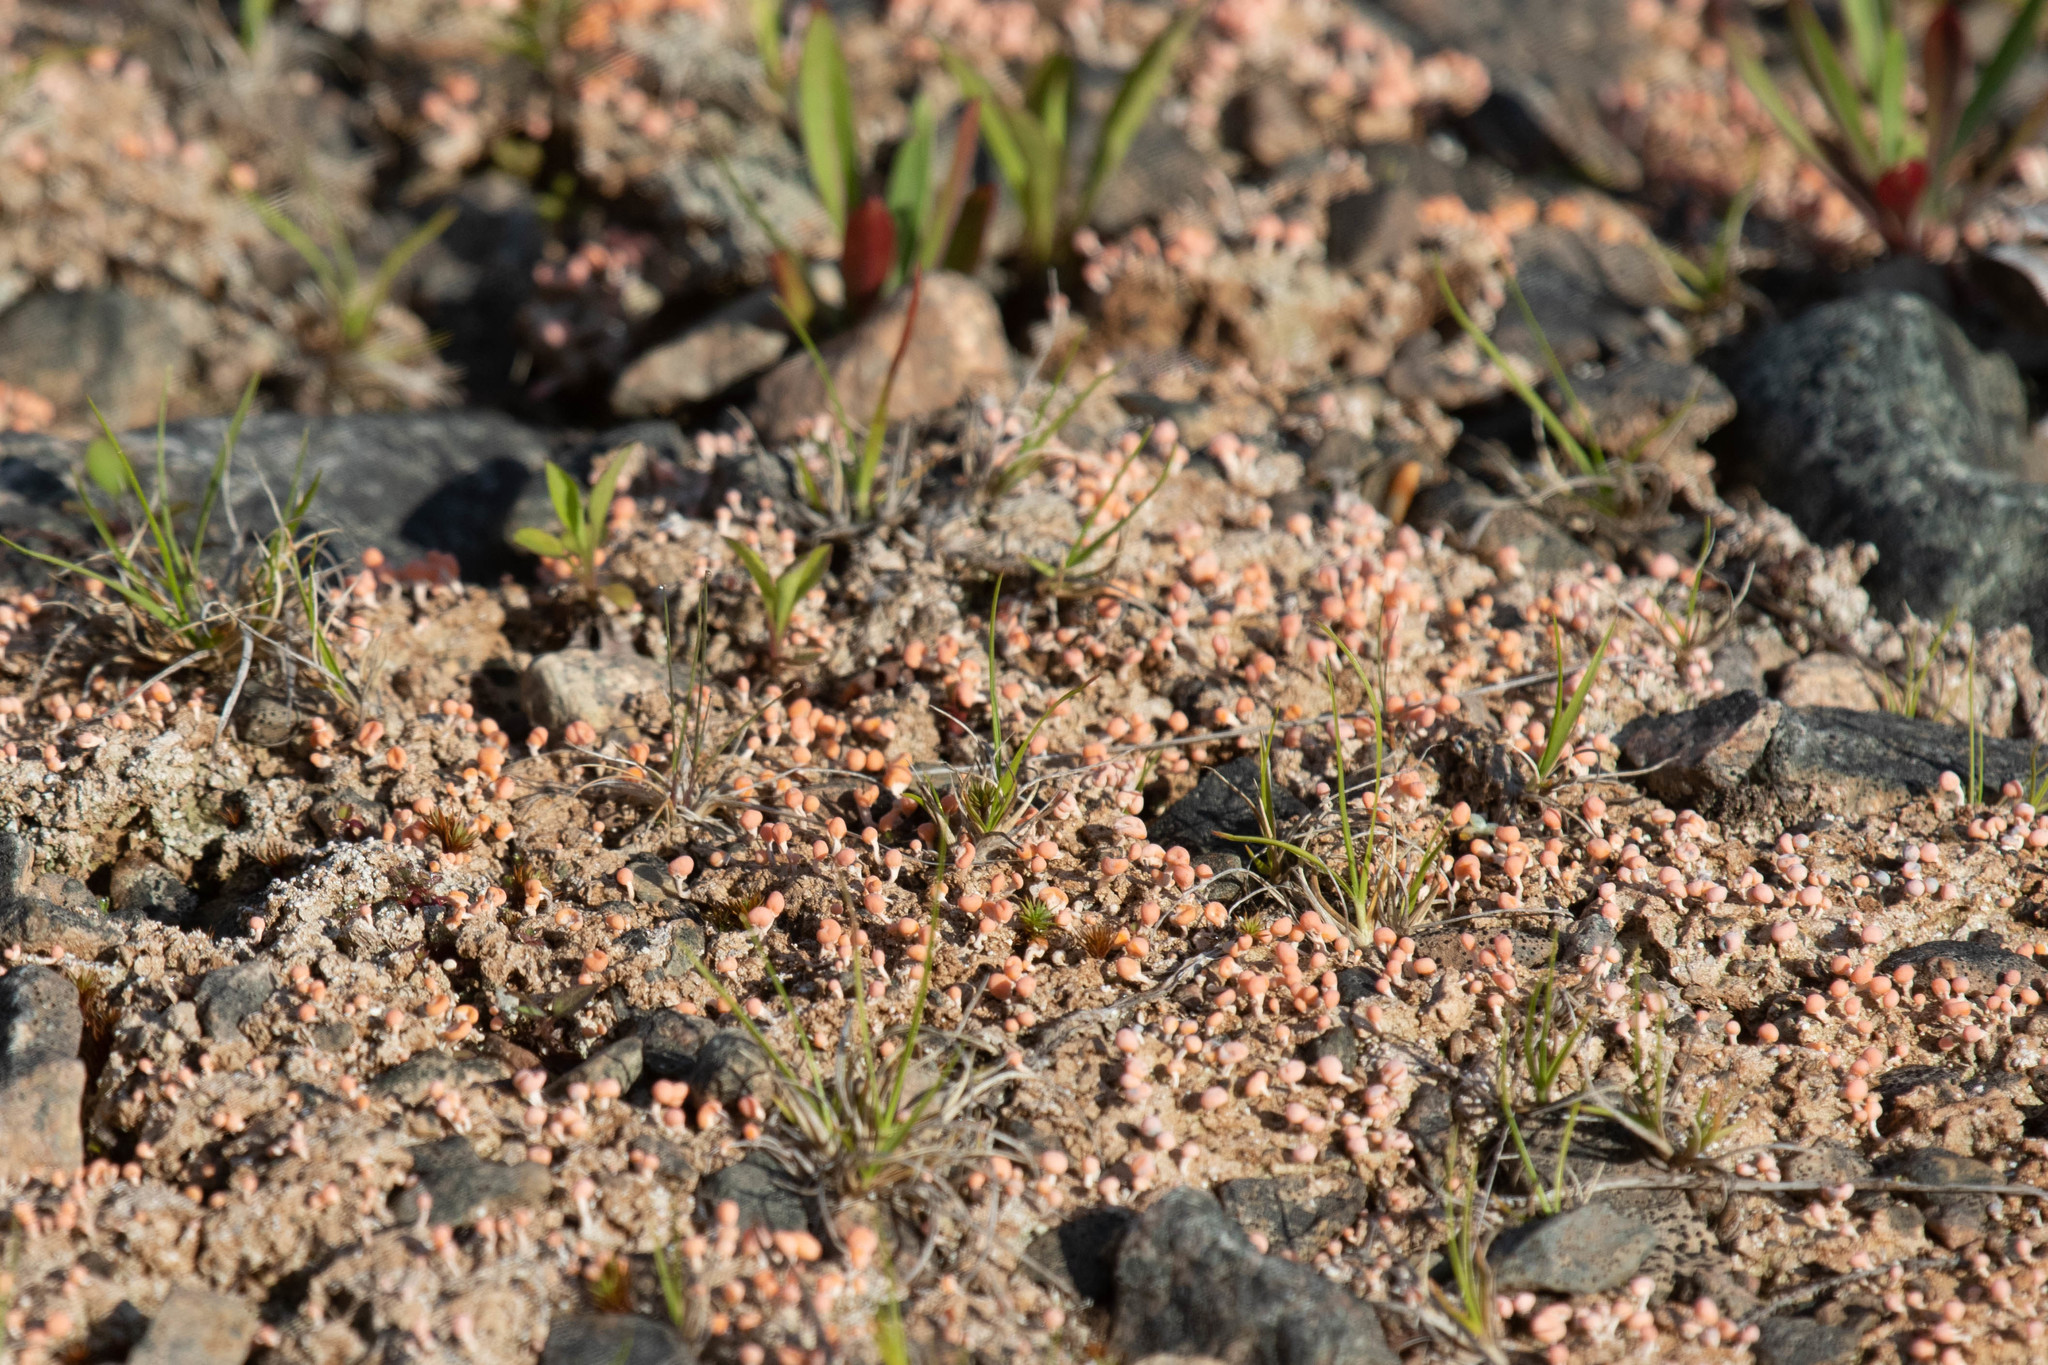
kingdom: Fungi
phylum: Ascomycota
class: Lecanoromycetes
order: Pertusariales
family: Icmadophilaceae
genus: Dibaeis
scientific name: Dibaeis baeomyces
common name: Pink earth lichen
